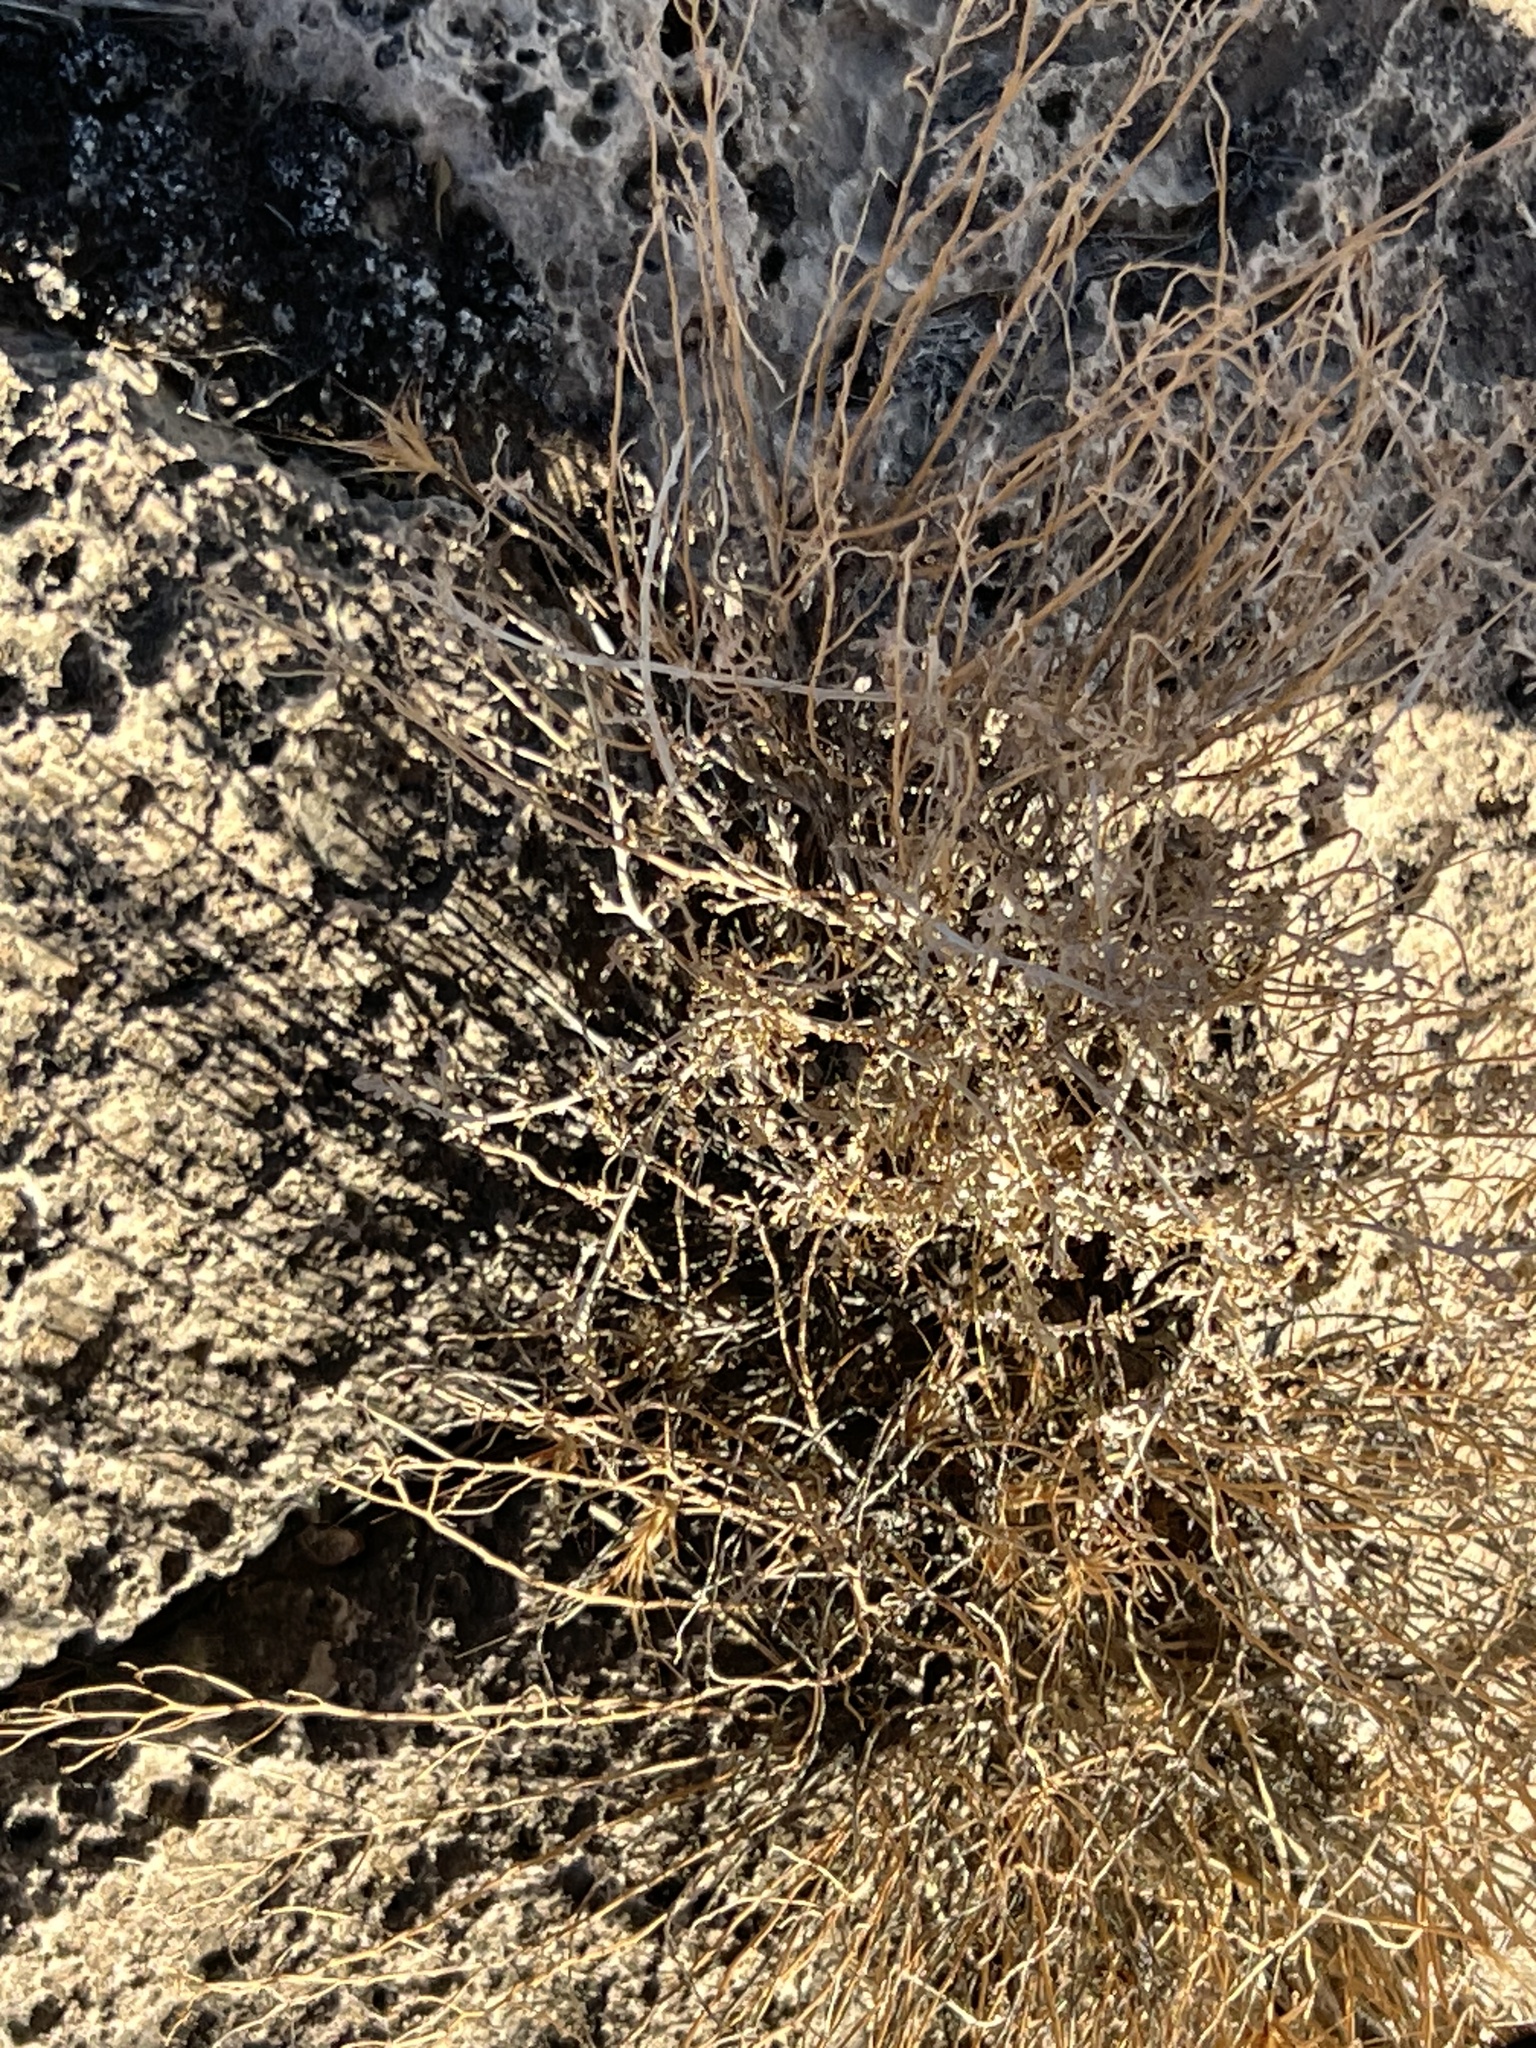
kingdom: Plantae
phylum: Tracheophyta
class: Magnoliopsida
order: Asterales
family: Asteraceae
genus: Ambrosia
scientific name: Ambrosia dumosa
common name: Bur-sage
